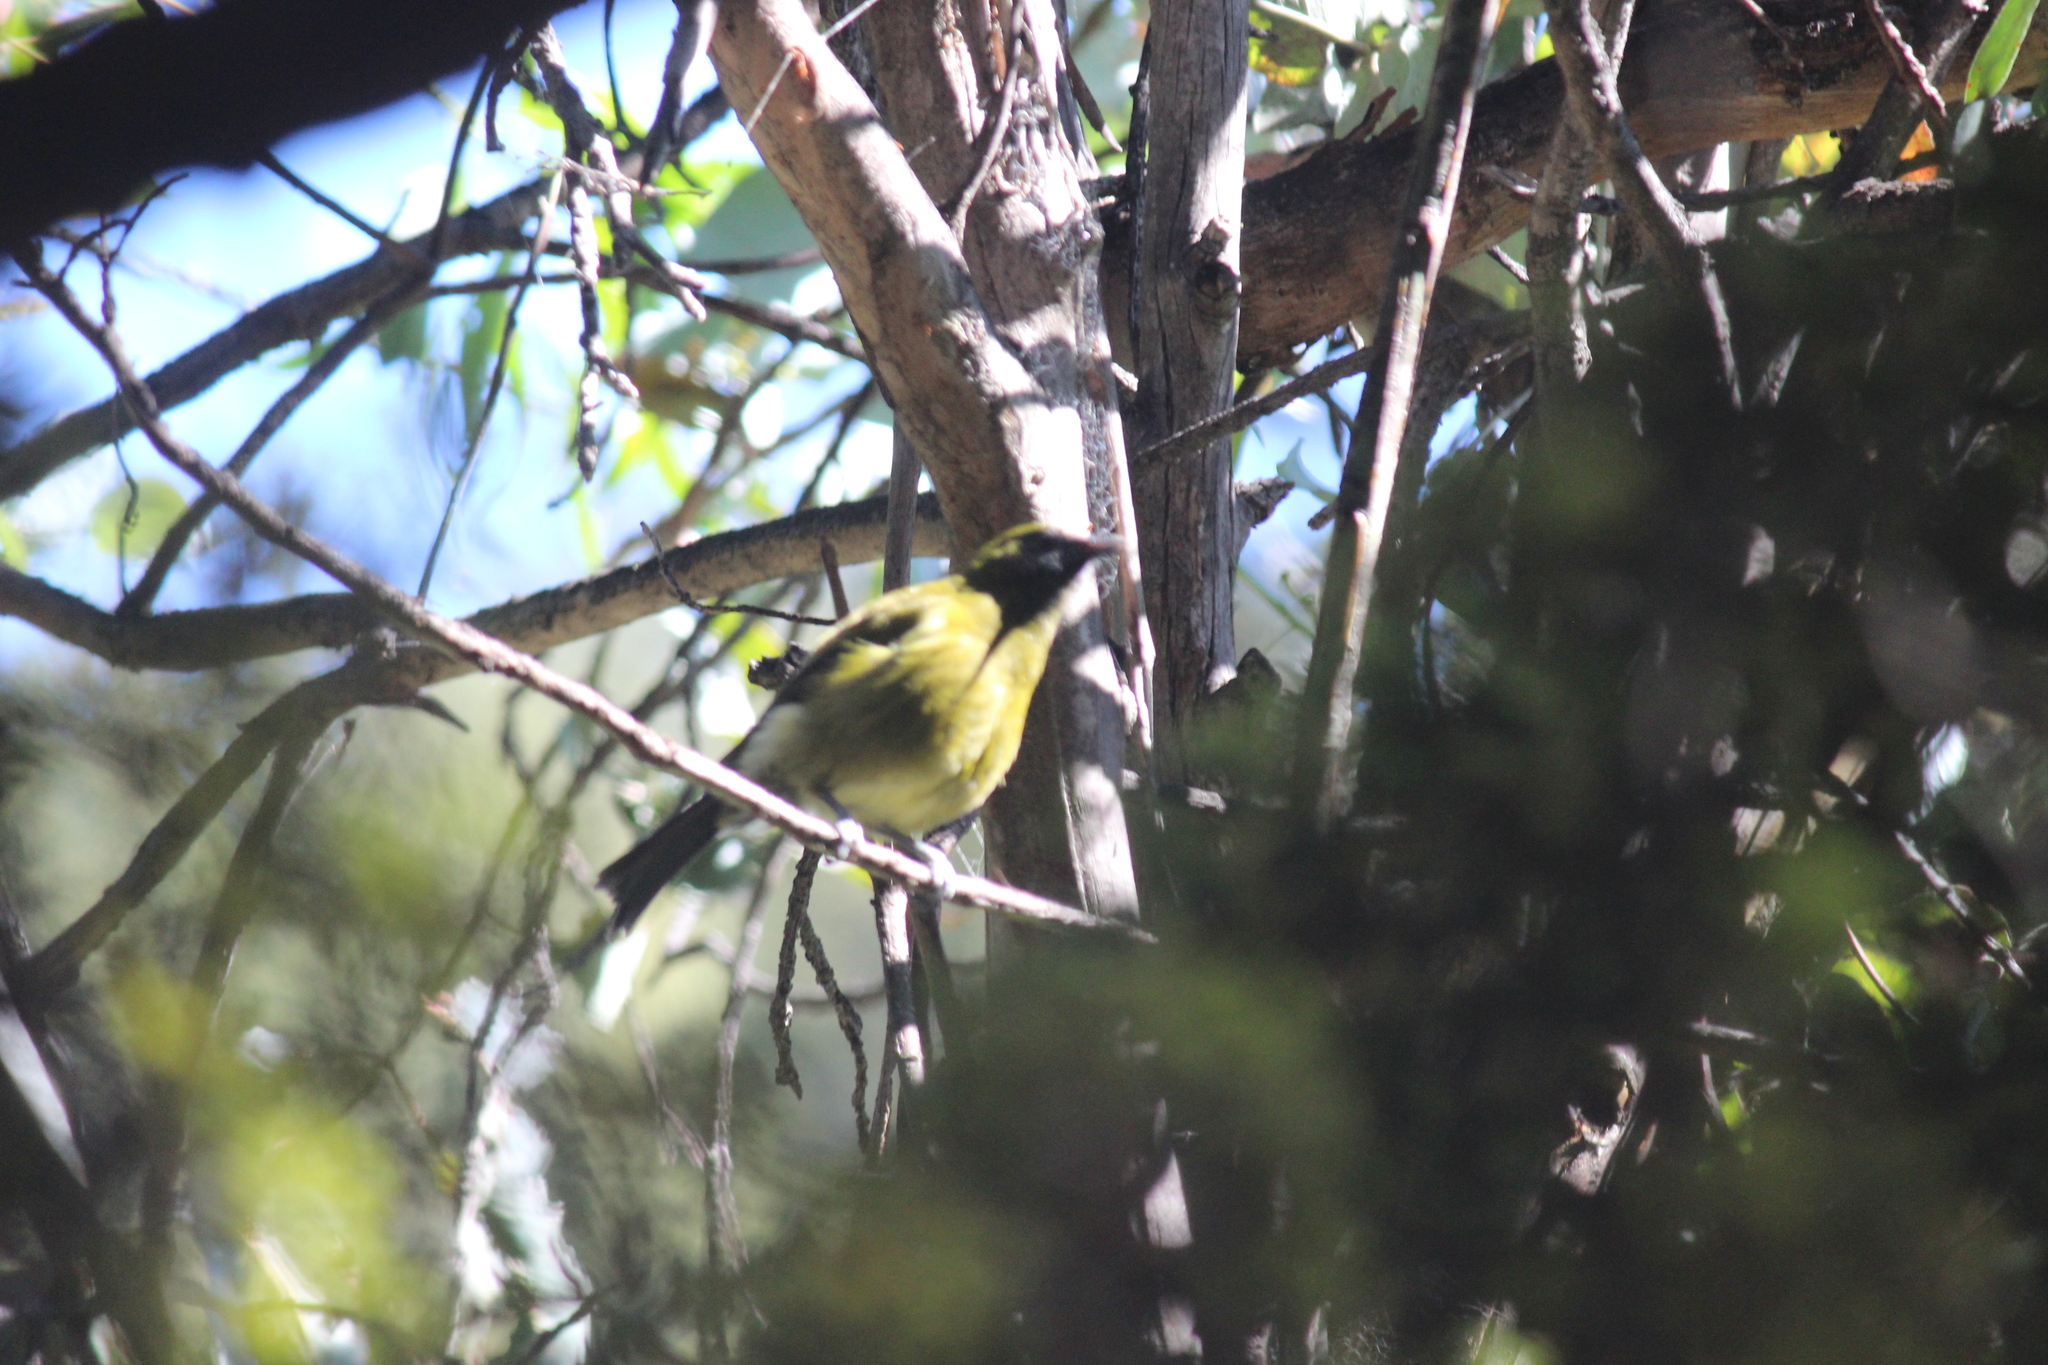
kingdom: Animalia
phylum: Chordata
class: Aves
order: Passeriformes
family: Meliphagidae
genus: Anthornis
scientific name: Anthornis melanura
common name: New zealand bellbird
